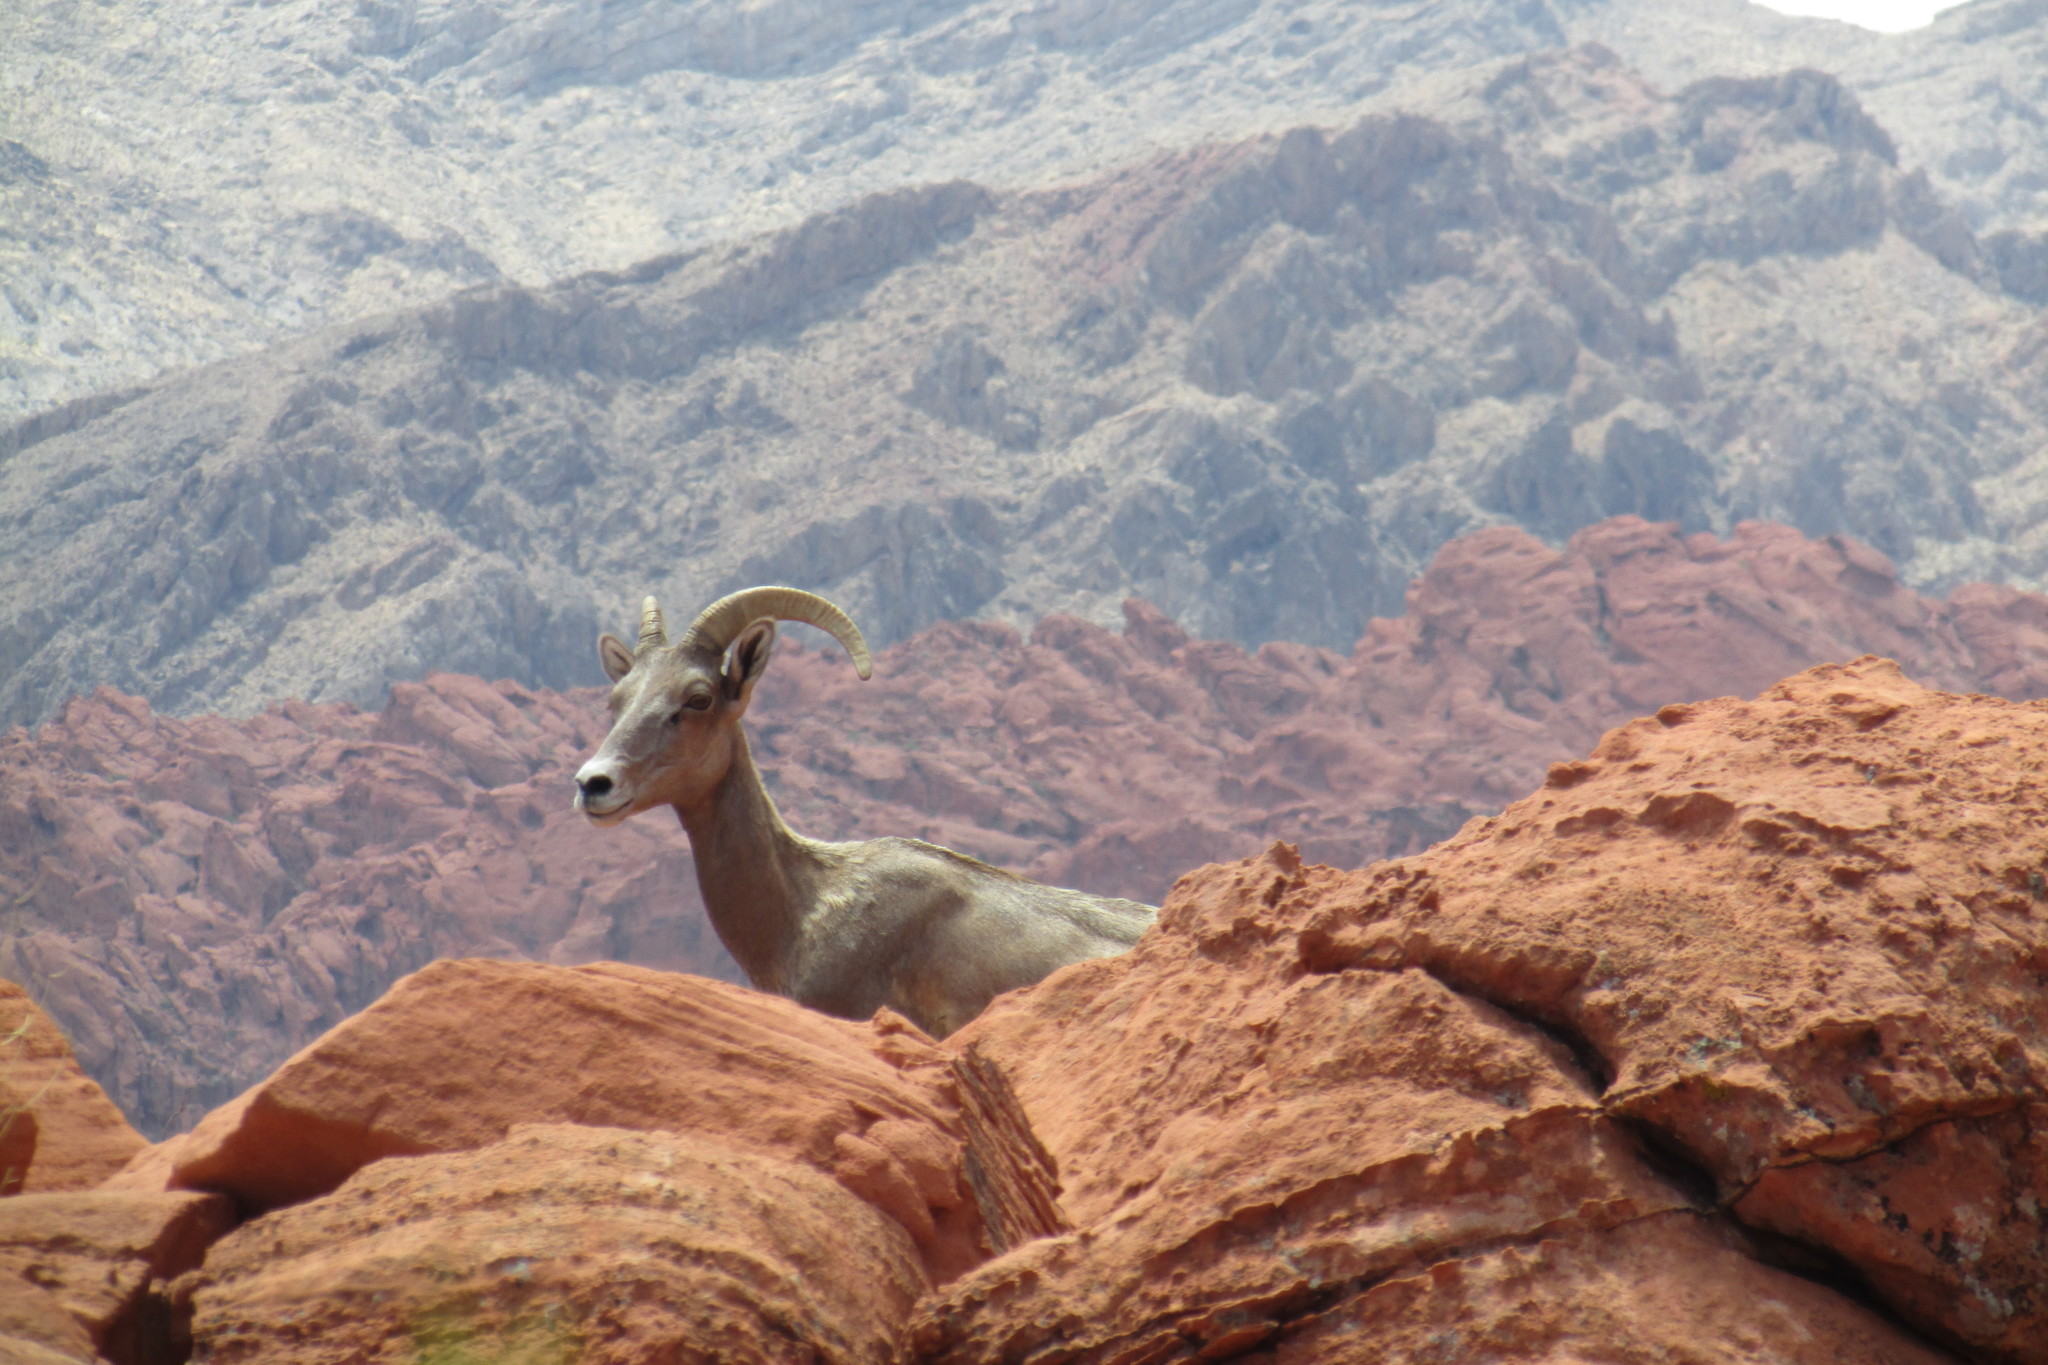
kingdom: Animalia
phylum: Chordata
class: Mammalia
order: Artiodactyla
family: Bovidae
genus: Ovis
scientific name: Ovis canadensis
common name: Bighorn sheep
